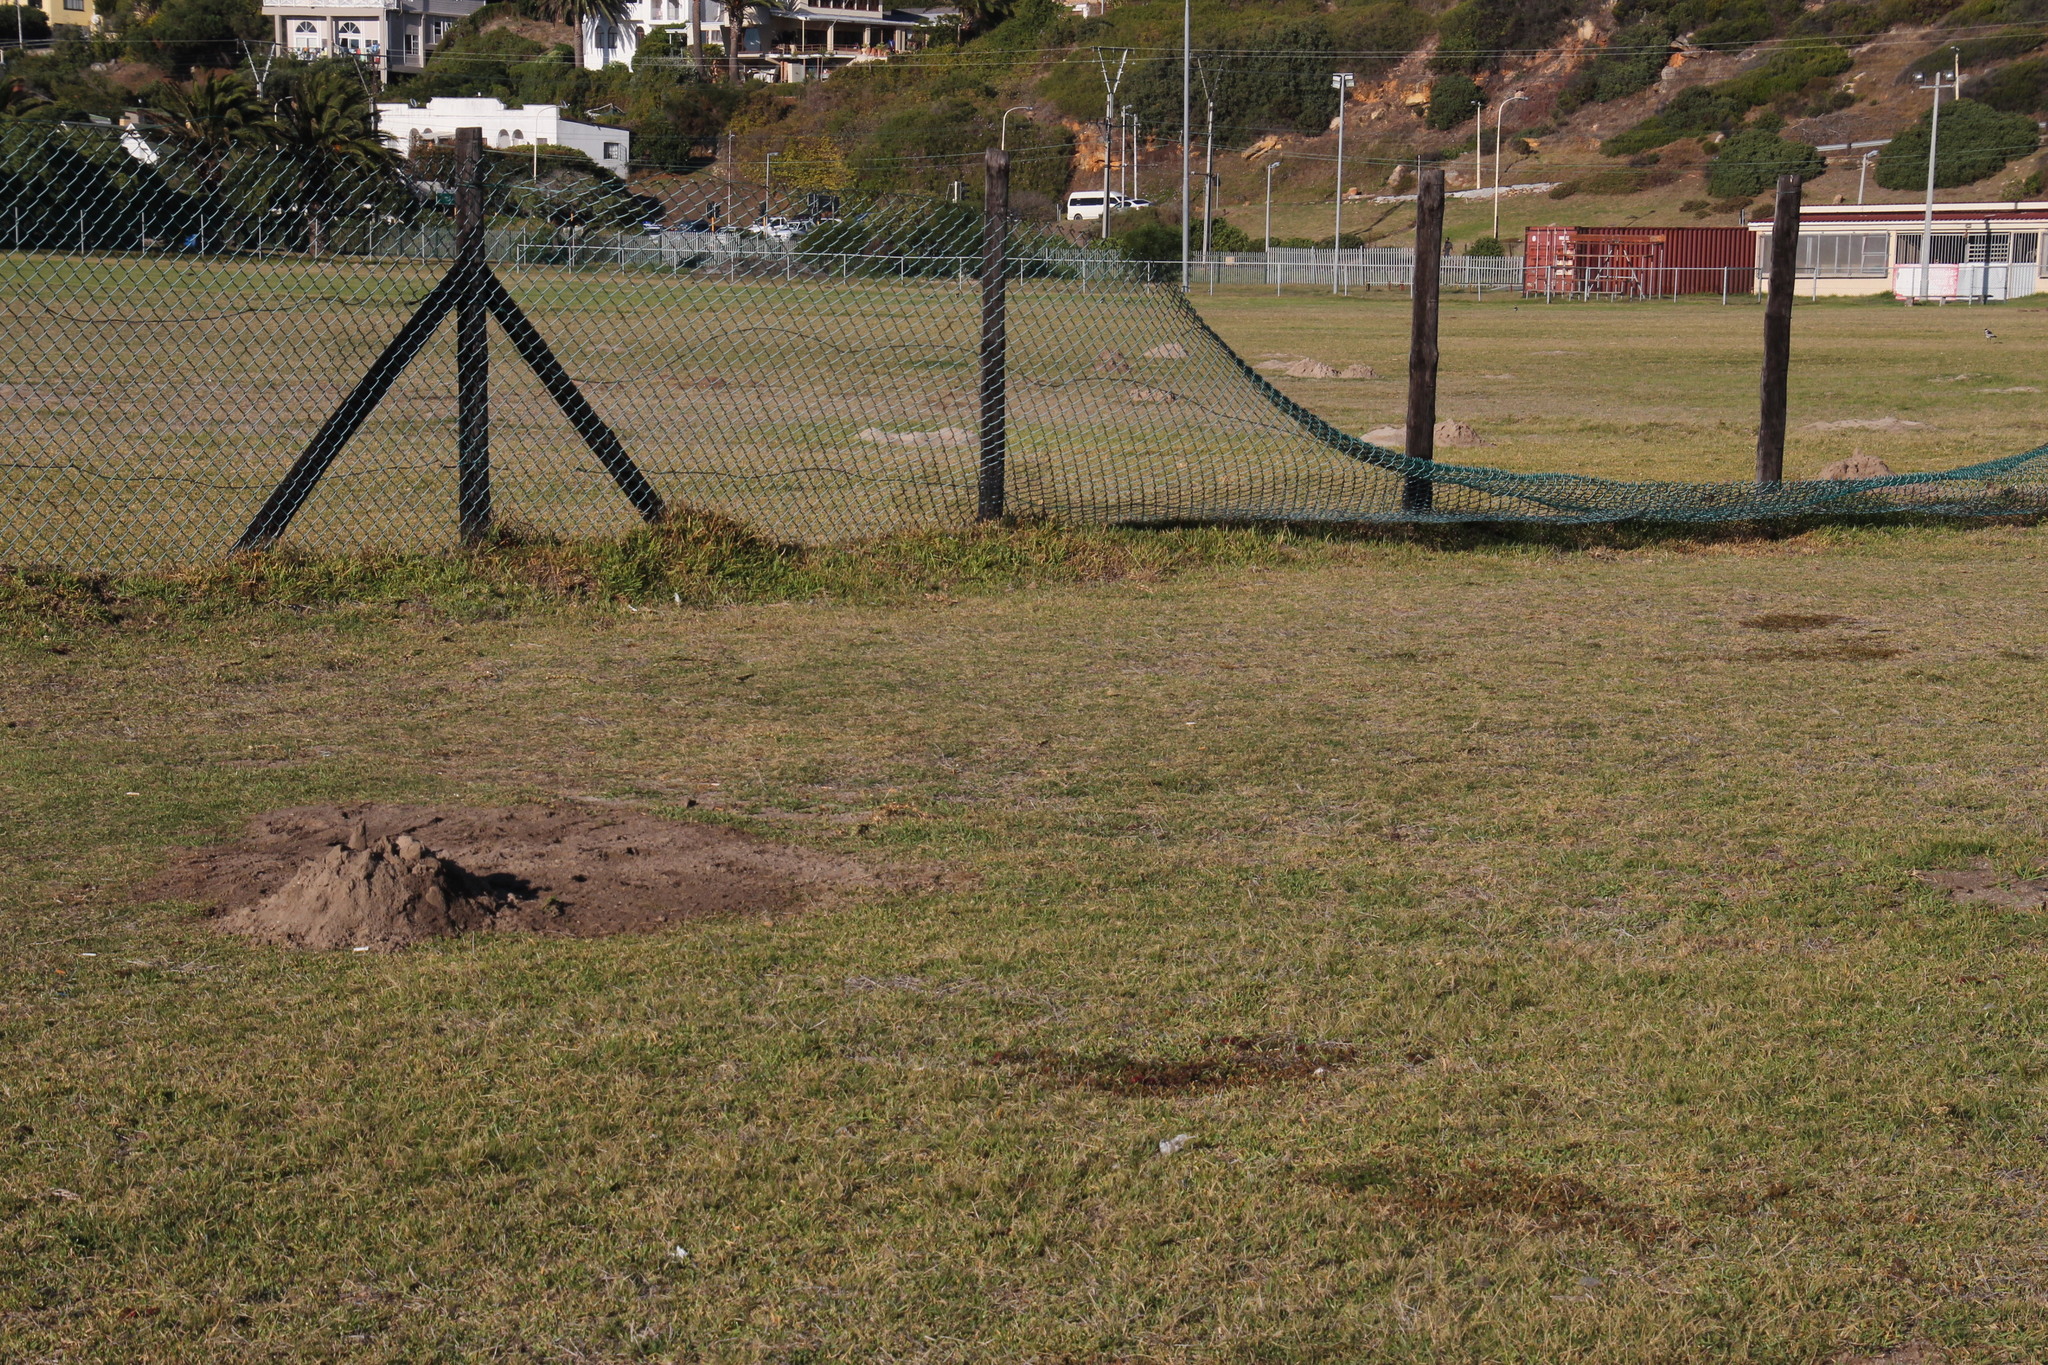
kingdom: Animalia
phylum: Chordata
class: Mammalia
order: Rodentia
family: Bathyergidae
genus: Bathyergus
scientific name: Bathyergus suillus
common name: Cape dune mole rat
